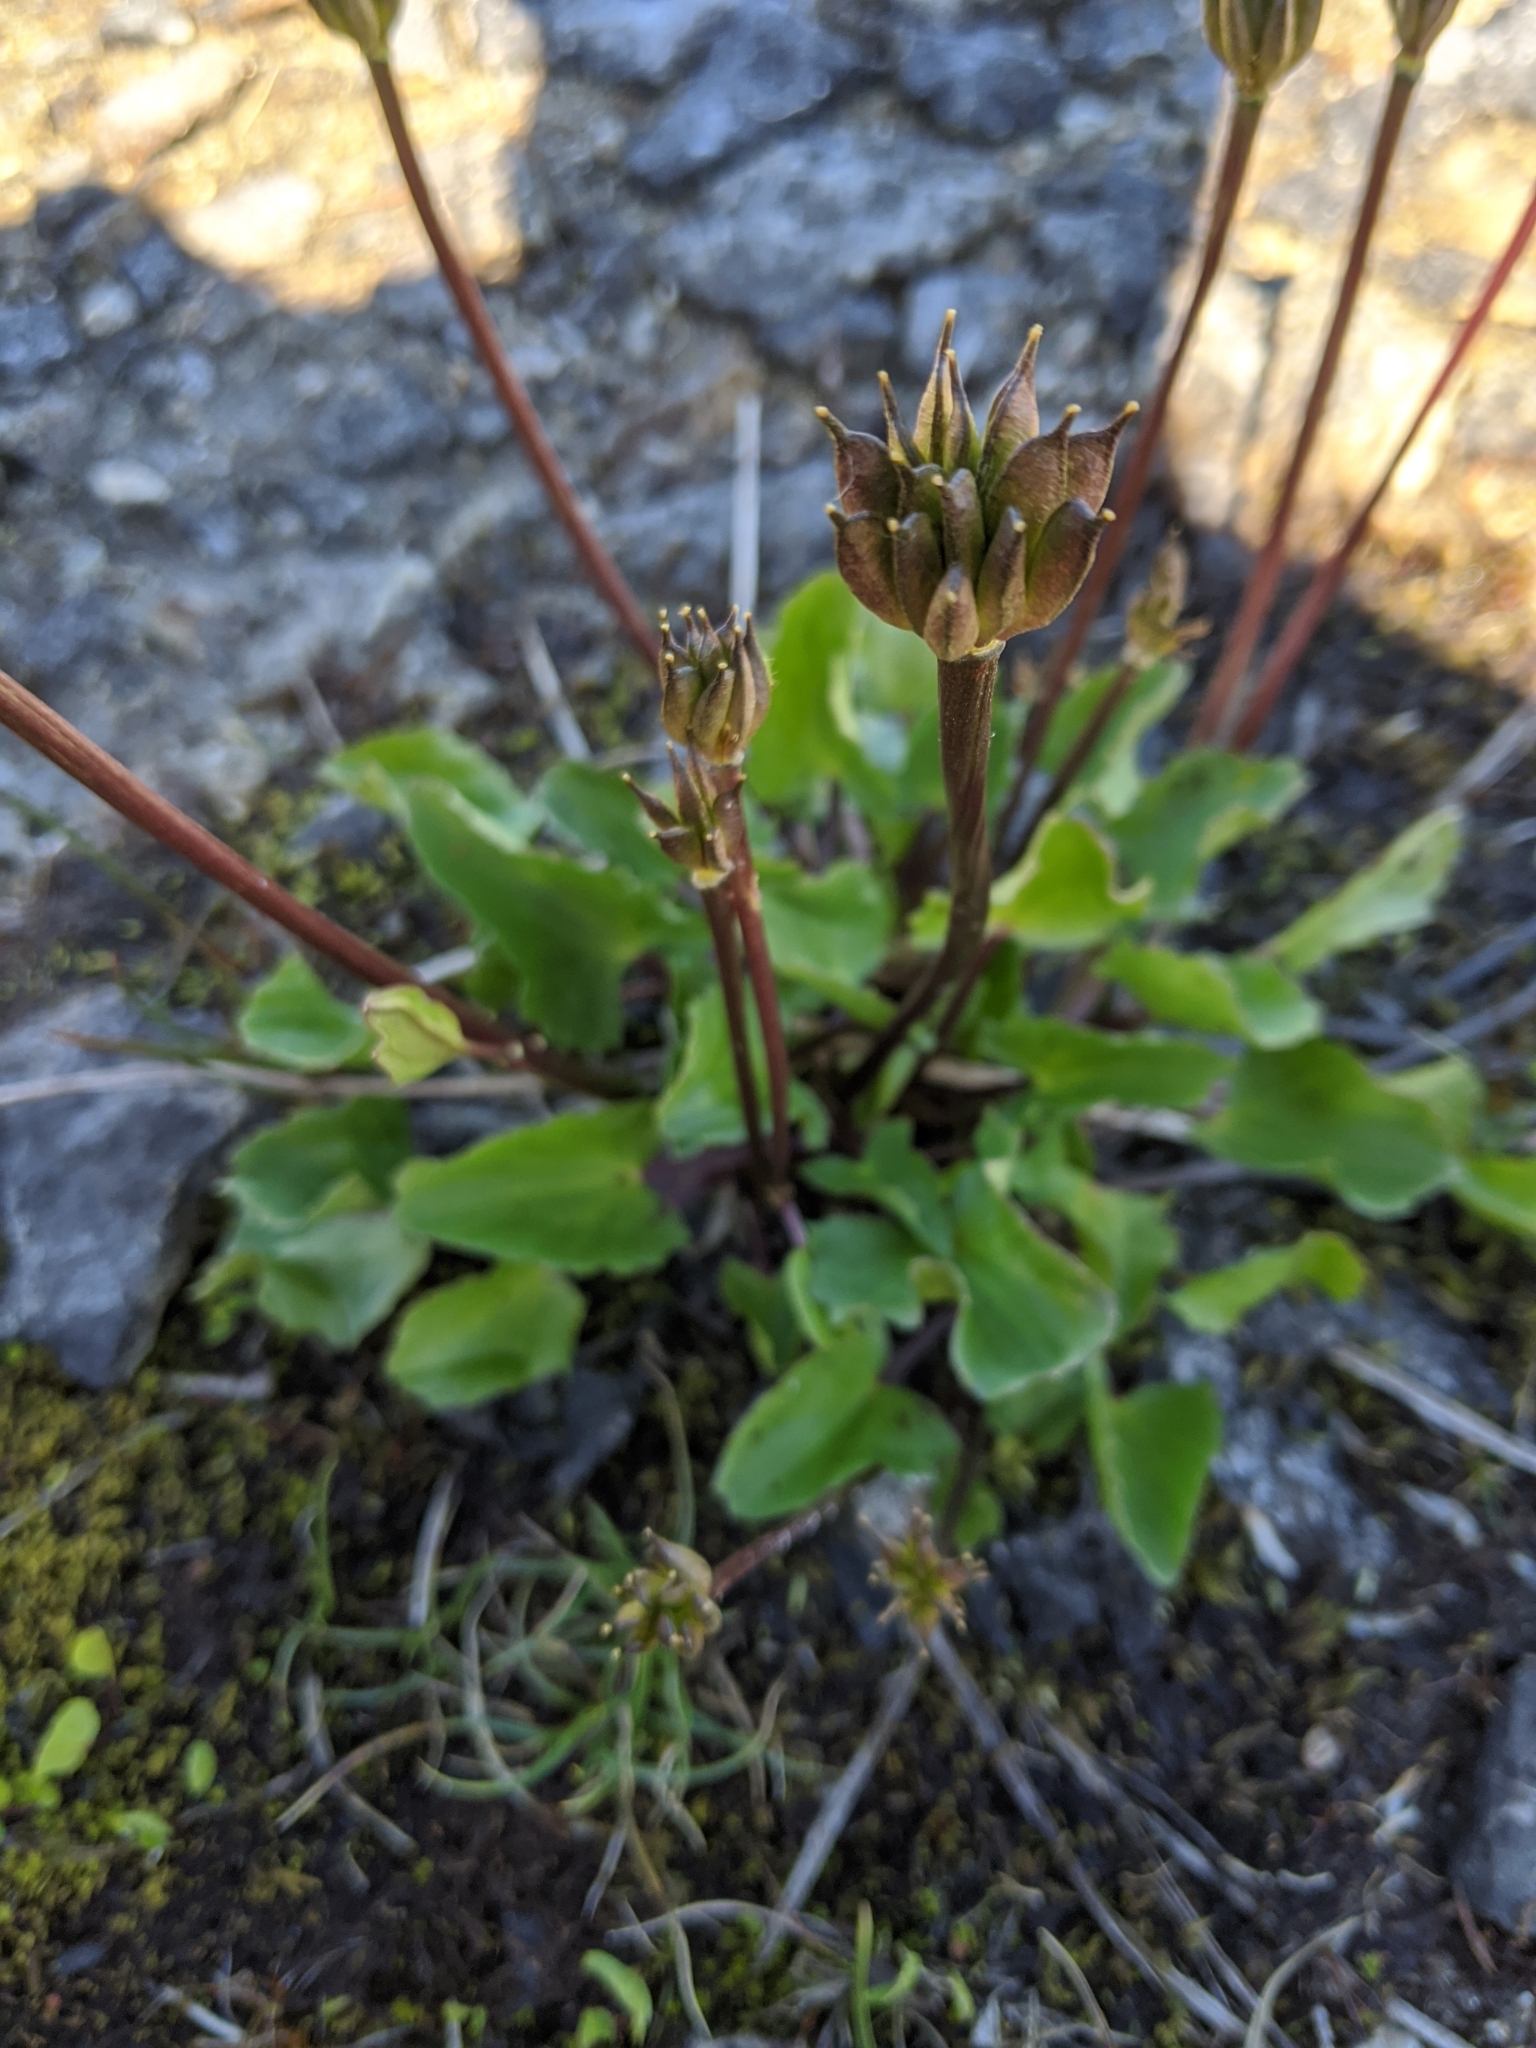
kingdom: Plantae
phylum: Tracheophyta
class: Magnoliopsida
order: Ranunculales
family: Ranunculaceae
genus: Caltha
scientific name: Caltha leptosepala
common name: Elkslip
